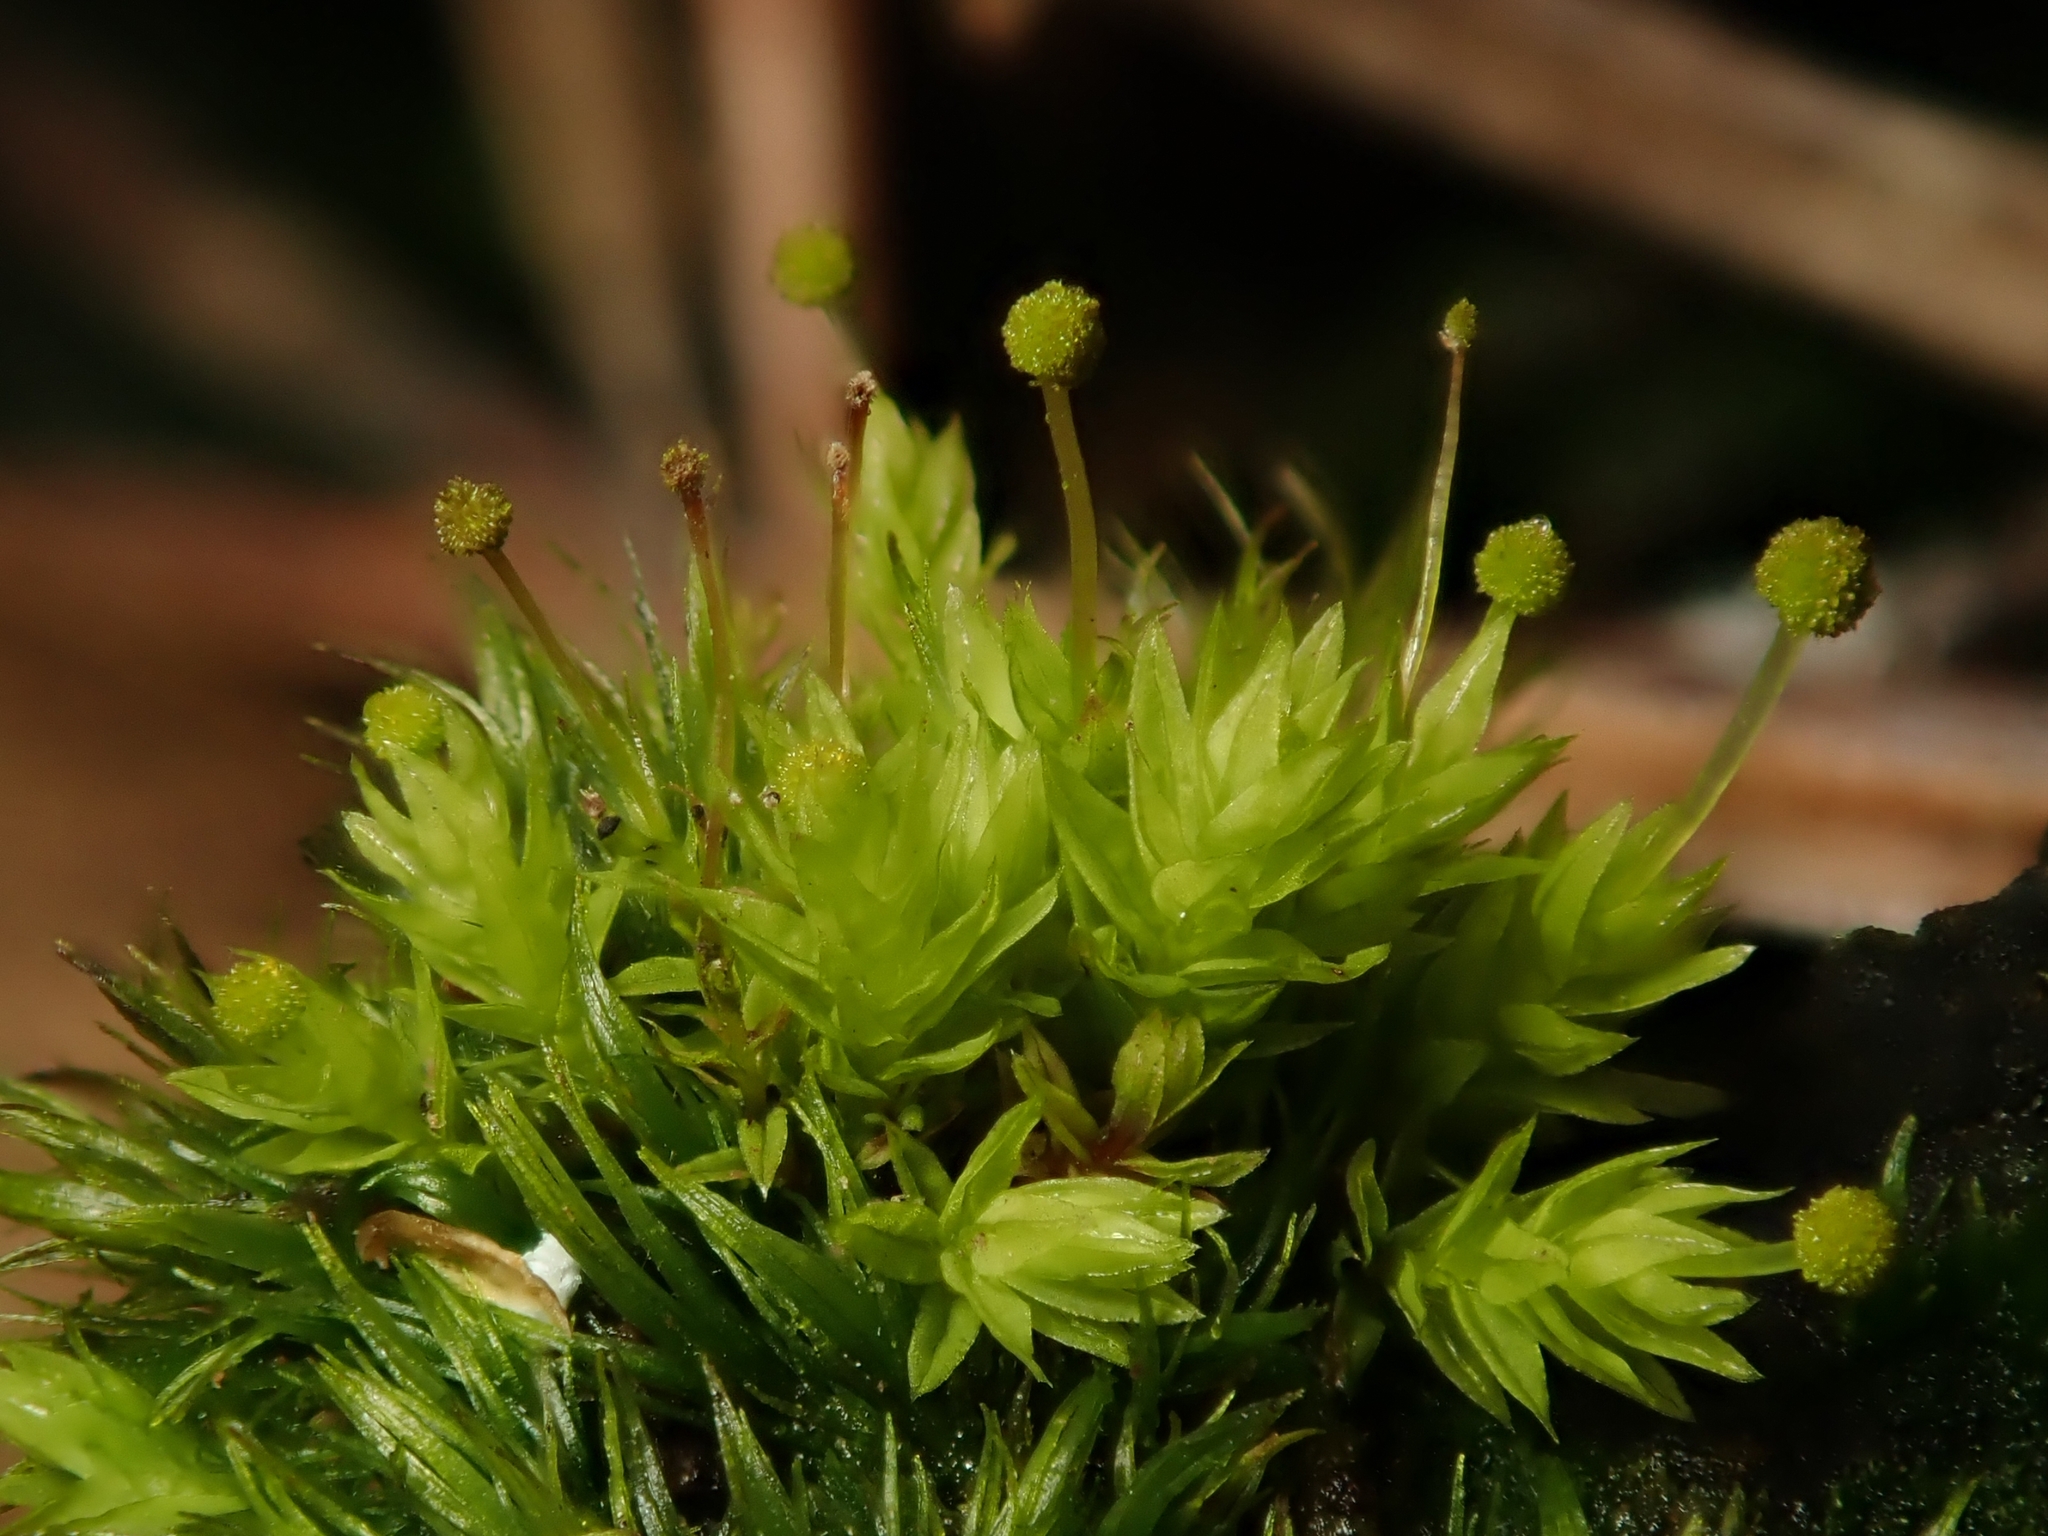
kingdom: Plantae
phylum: Bryophyta
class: Bryopsida
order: Aulacomniales
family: Aulacomniaceae
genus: Aulacomnium
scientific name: Aulacomnium androgynum
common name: Little groove moss
